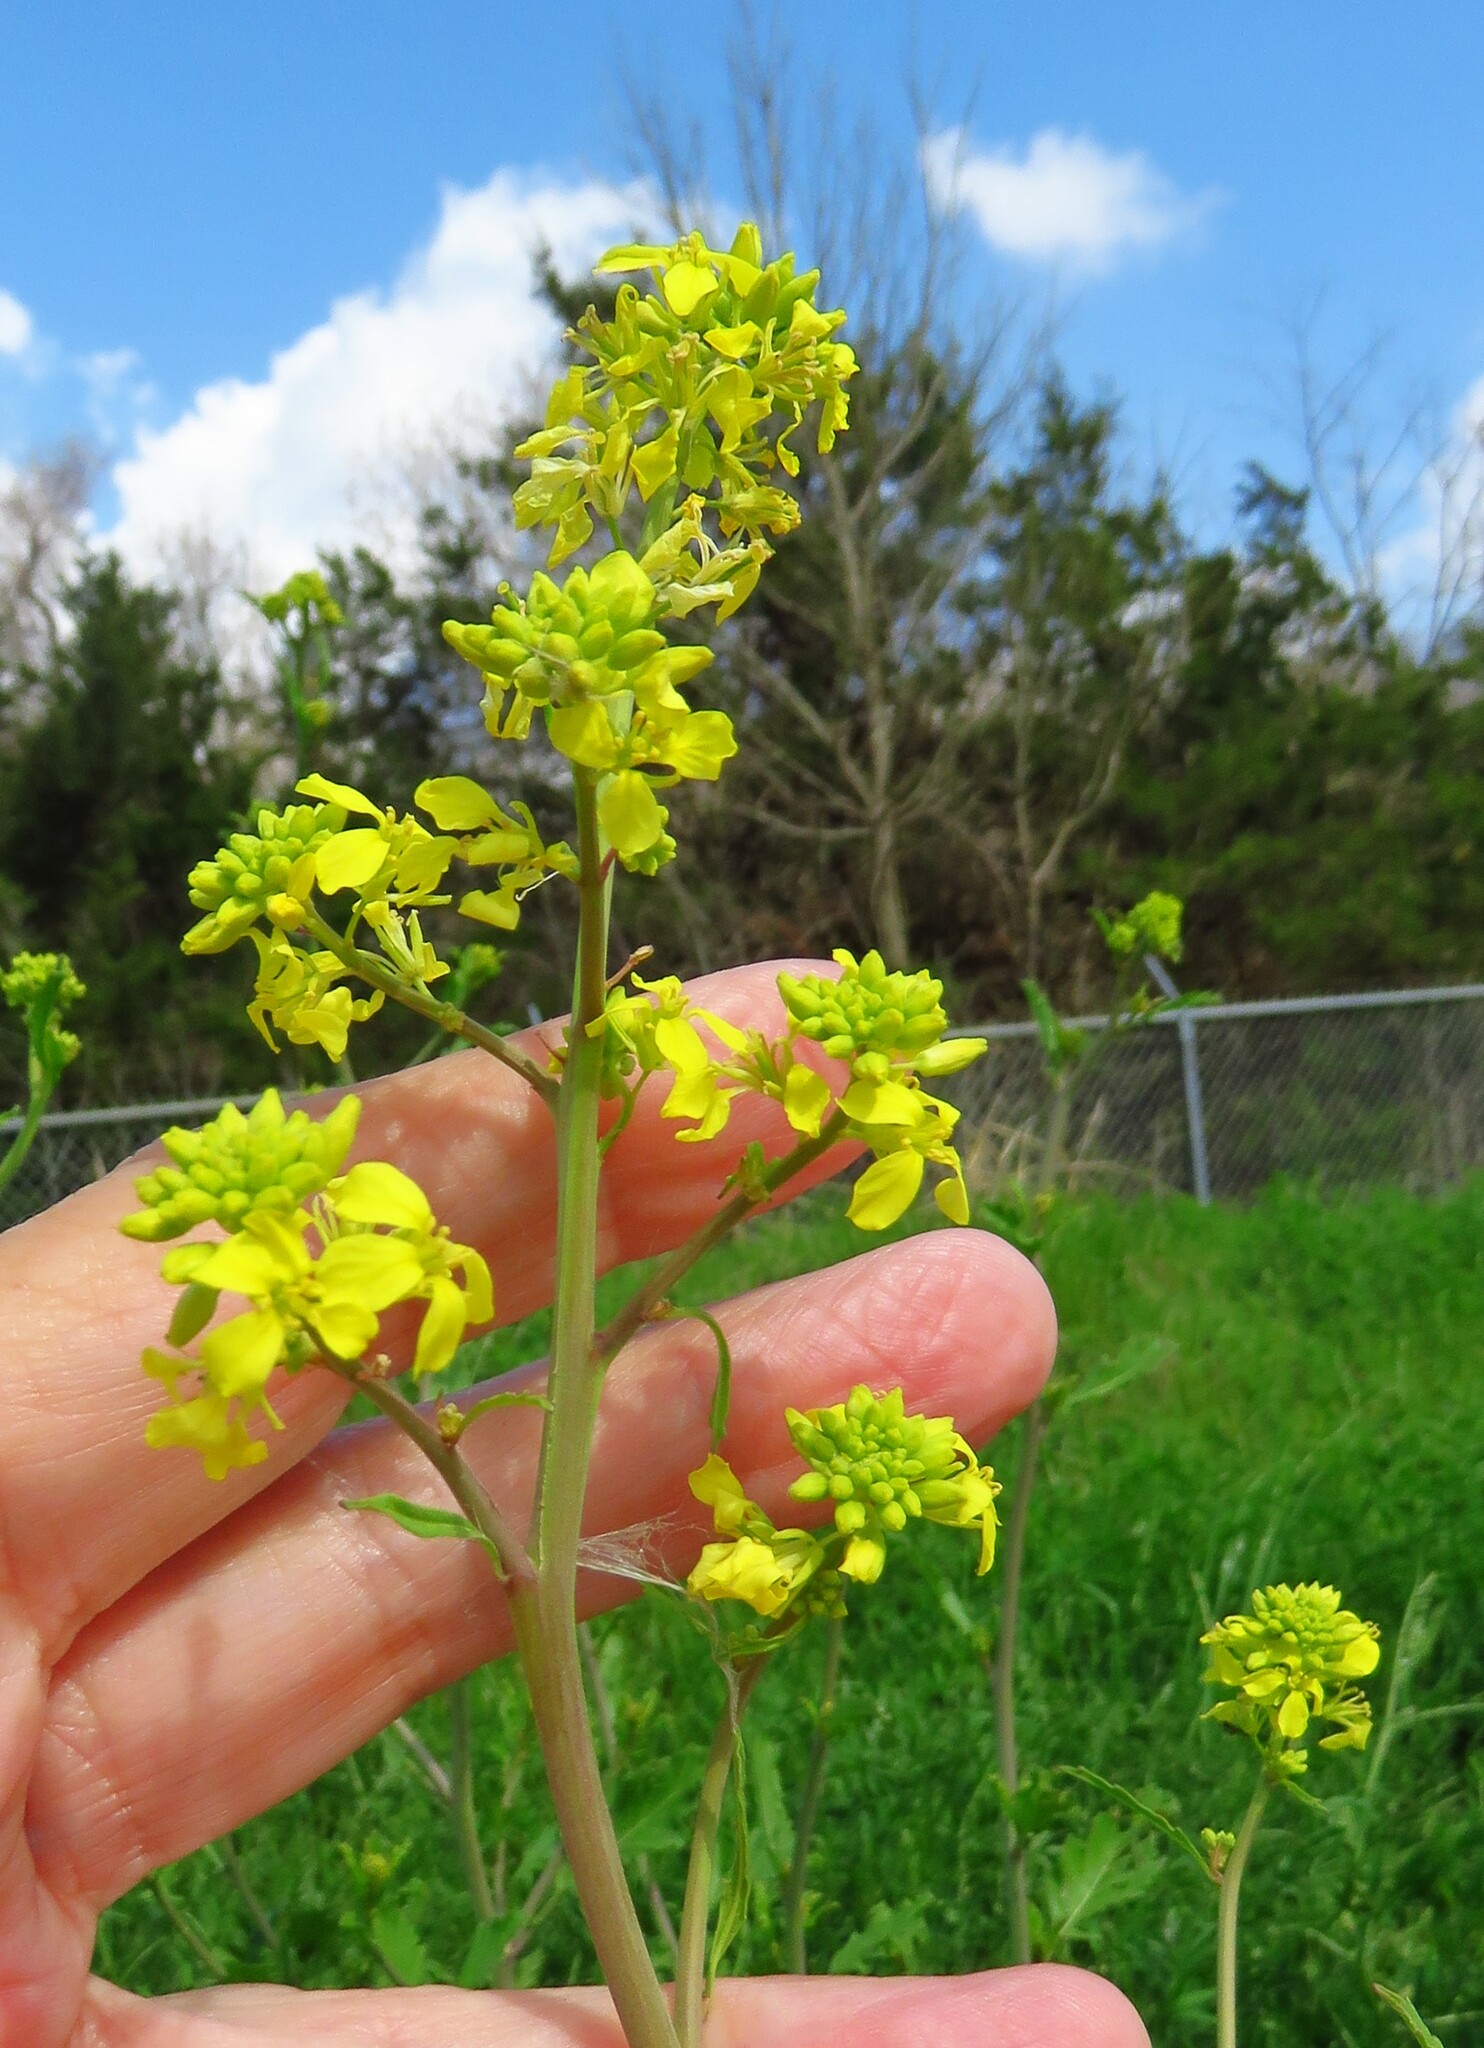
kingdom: Plantae
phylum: Tracheophyta
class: Magnoliopsida
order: Brassicales
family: Brassicaceae
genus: Rapistrum
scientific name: Rapistrum rugosum
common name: Annual bastardcabbage
